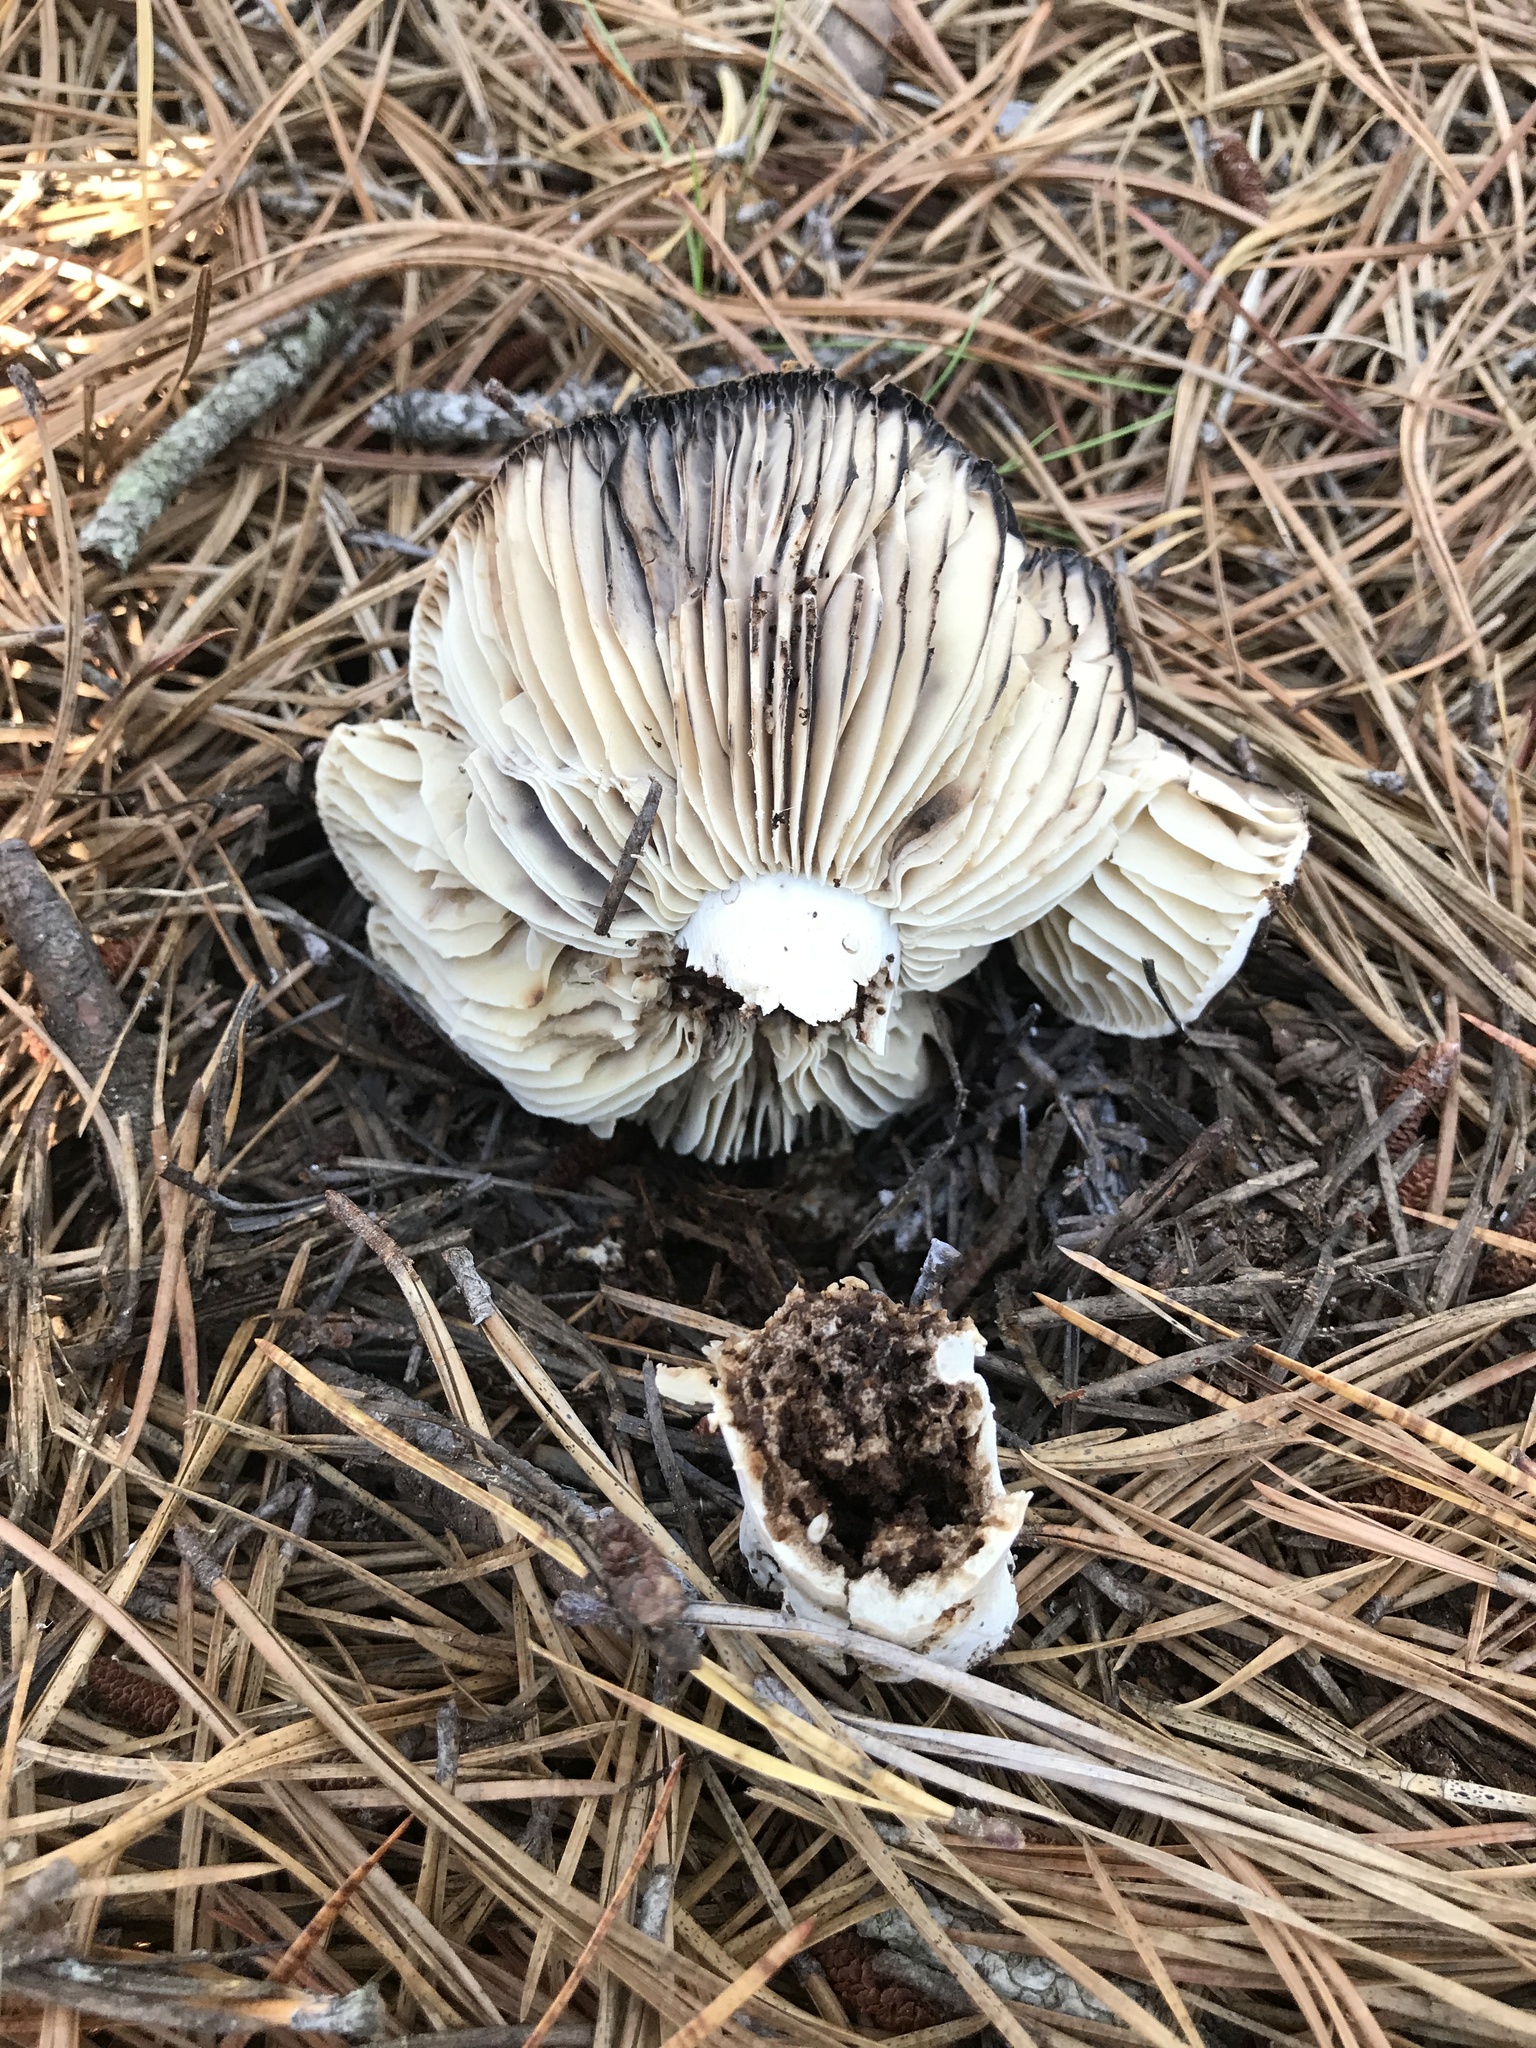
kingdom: Fungi
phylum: Basidiomycota
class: Agaricomycetes
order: Russulales
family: Russulaceae
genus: Russula
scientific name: Russula dissimulans
